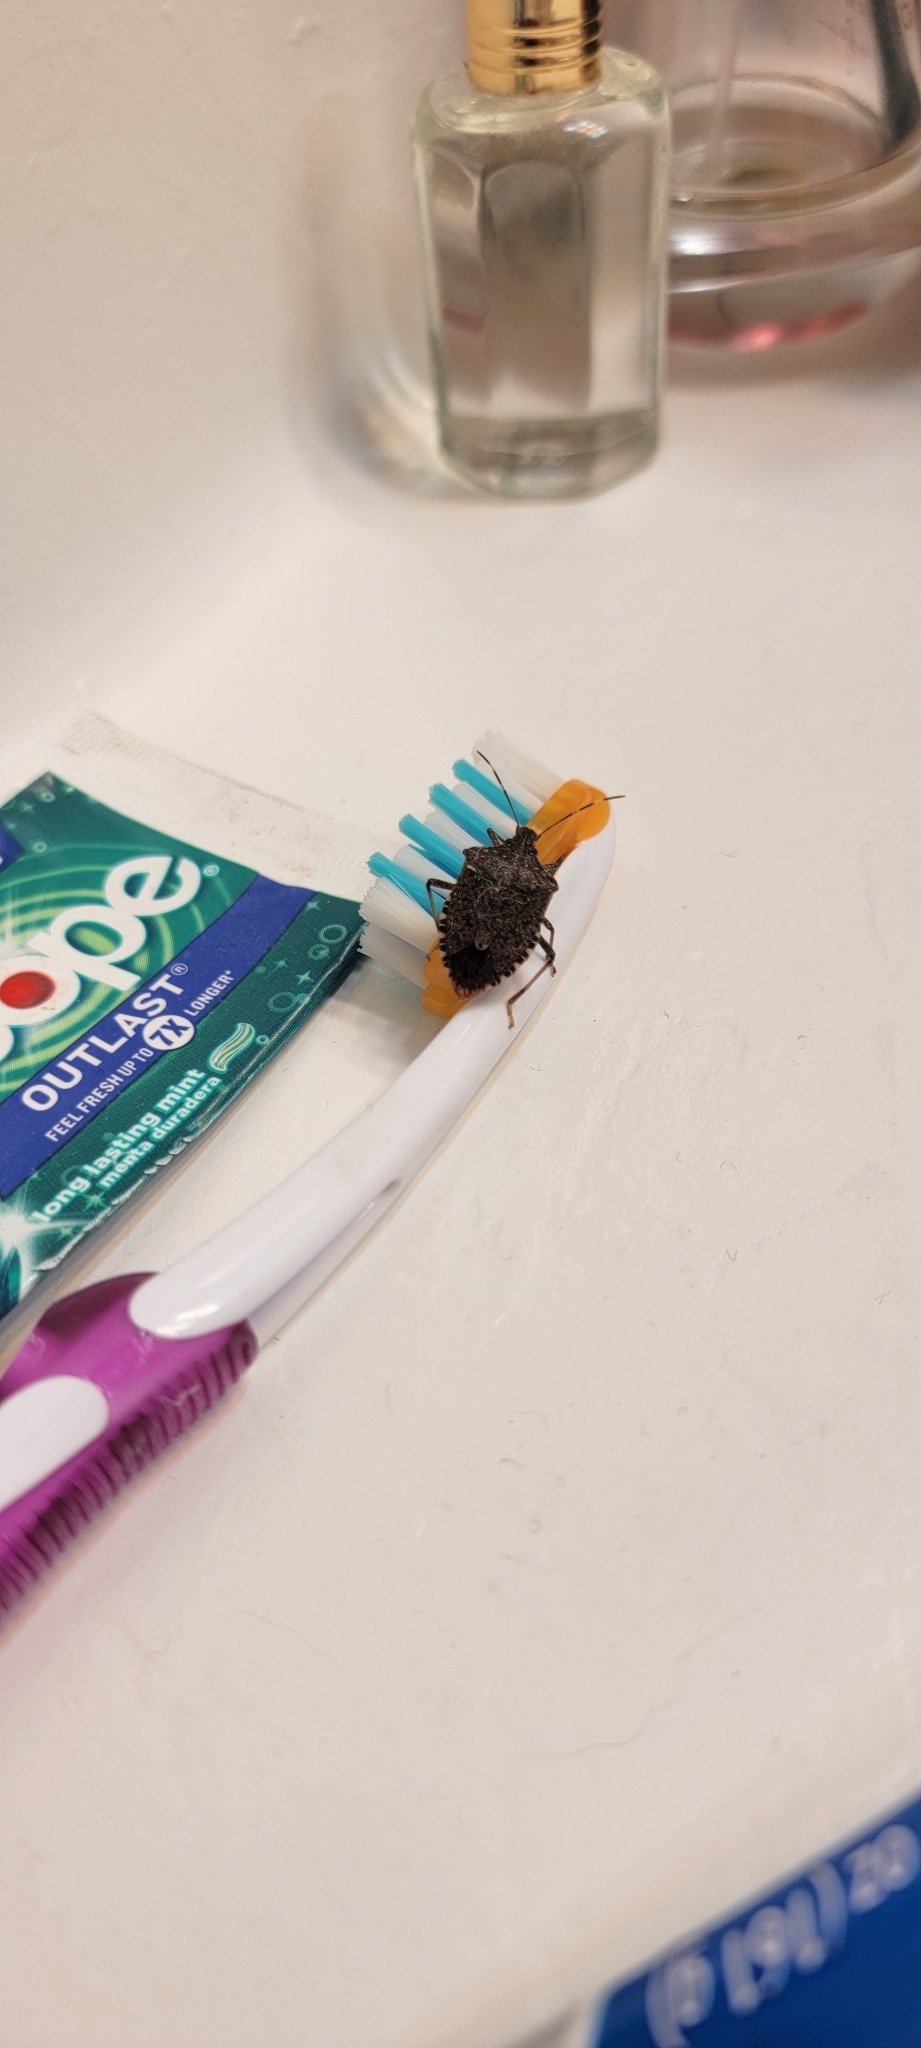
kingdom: Animalia
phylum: Arthropoda
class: Insecta
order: Hemiptera
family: Pentatomidae
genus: Halyomorpha
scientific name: Halyomorpha halys
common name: Brown marmorated stink bug
